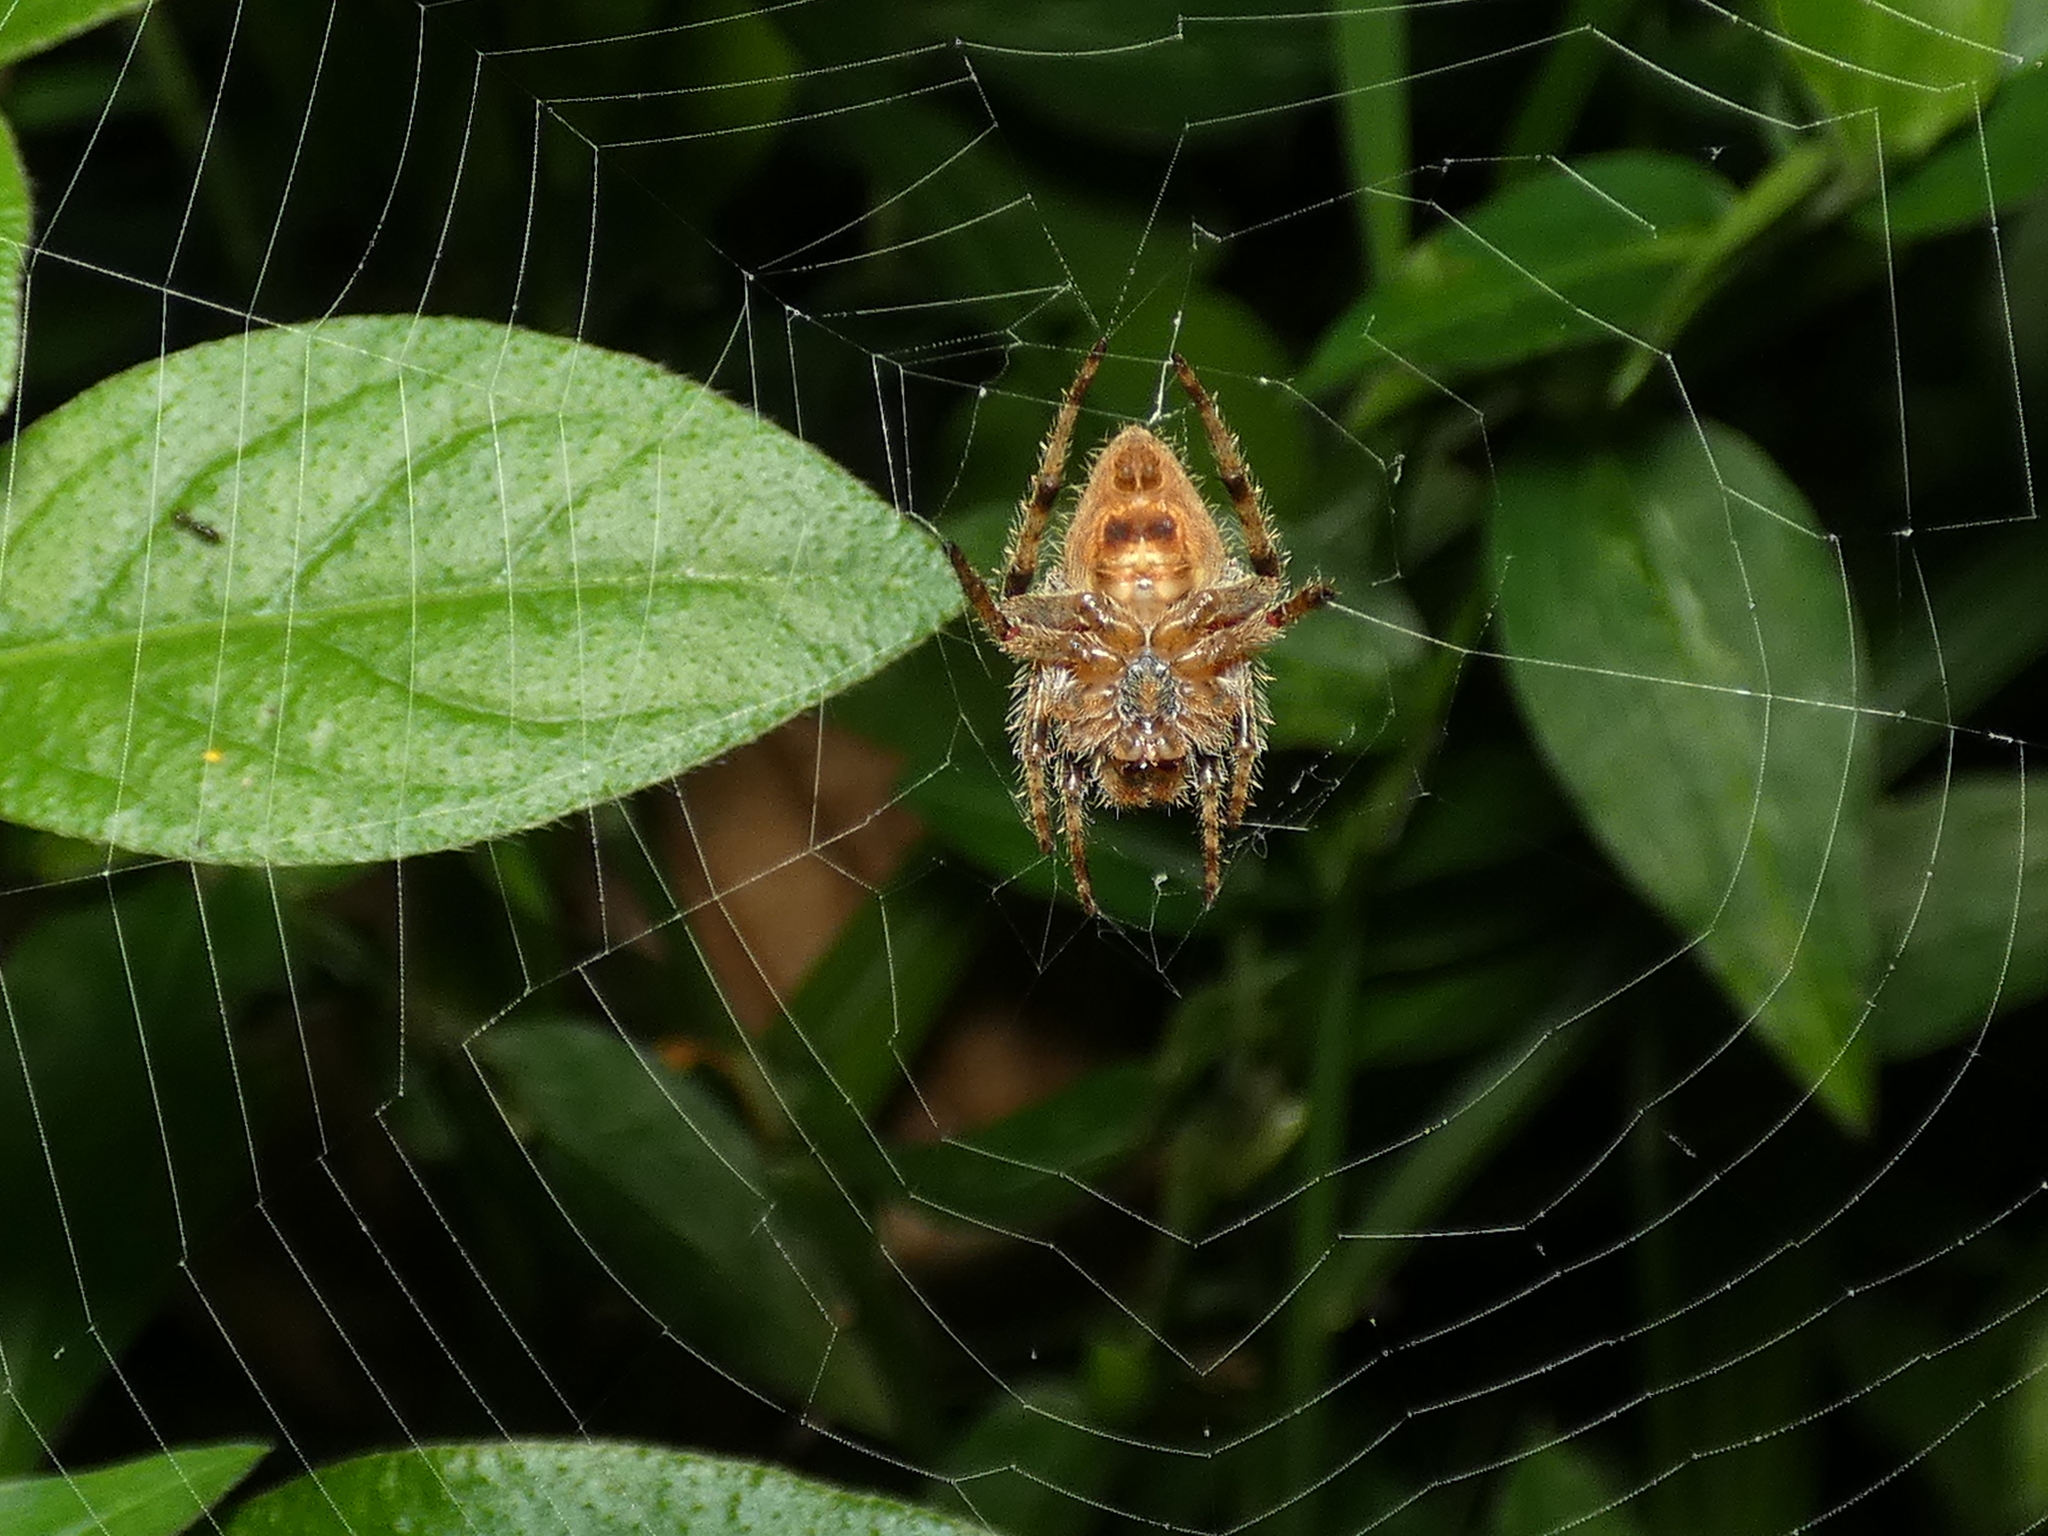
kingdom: Animalia
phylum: Arthropoda
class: Arachnida
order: Araneae
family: Araneidae
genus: Eriophora
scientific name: Eriophora edax
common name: Orb weavers
